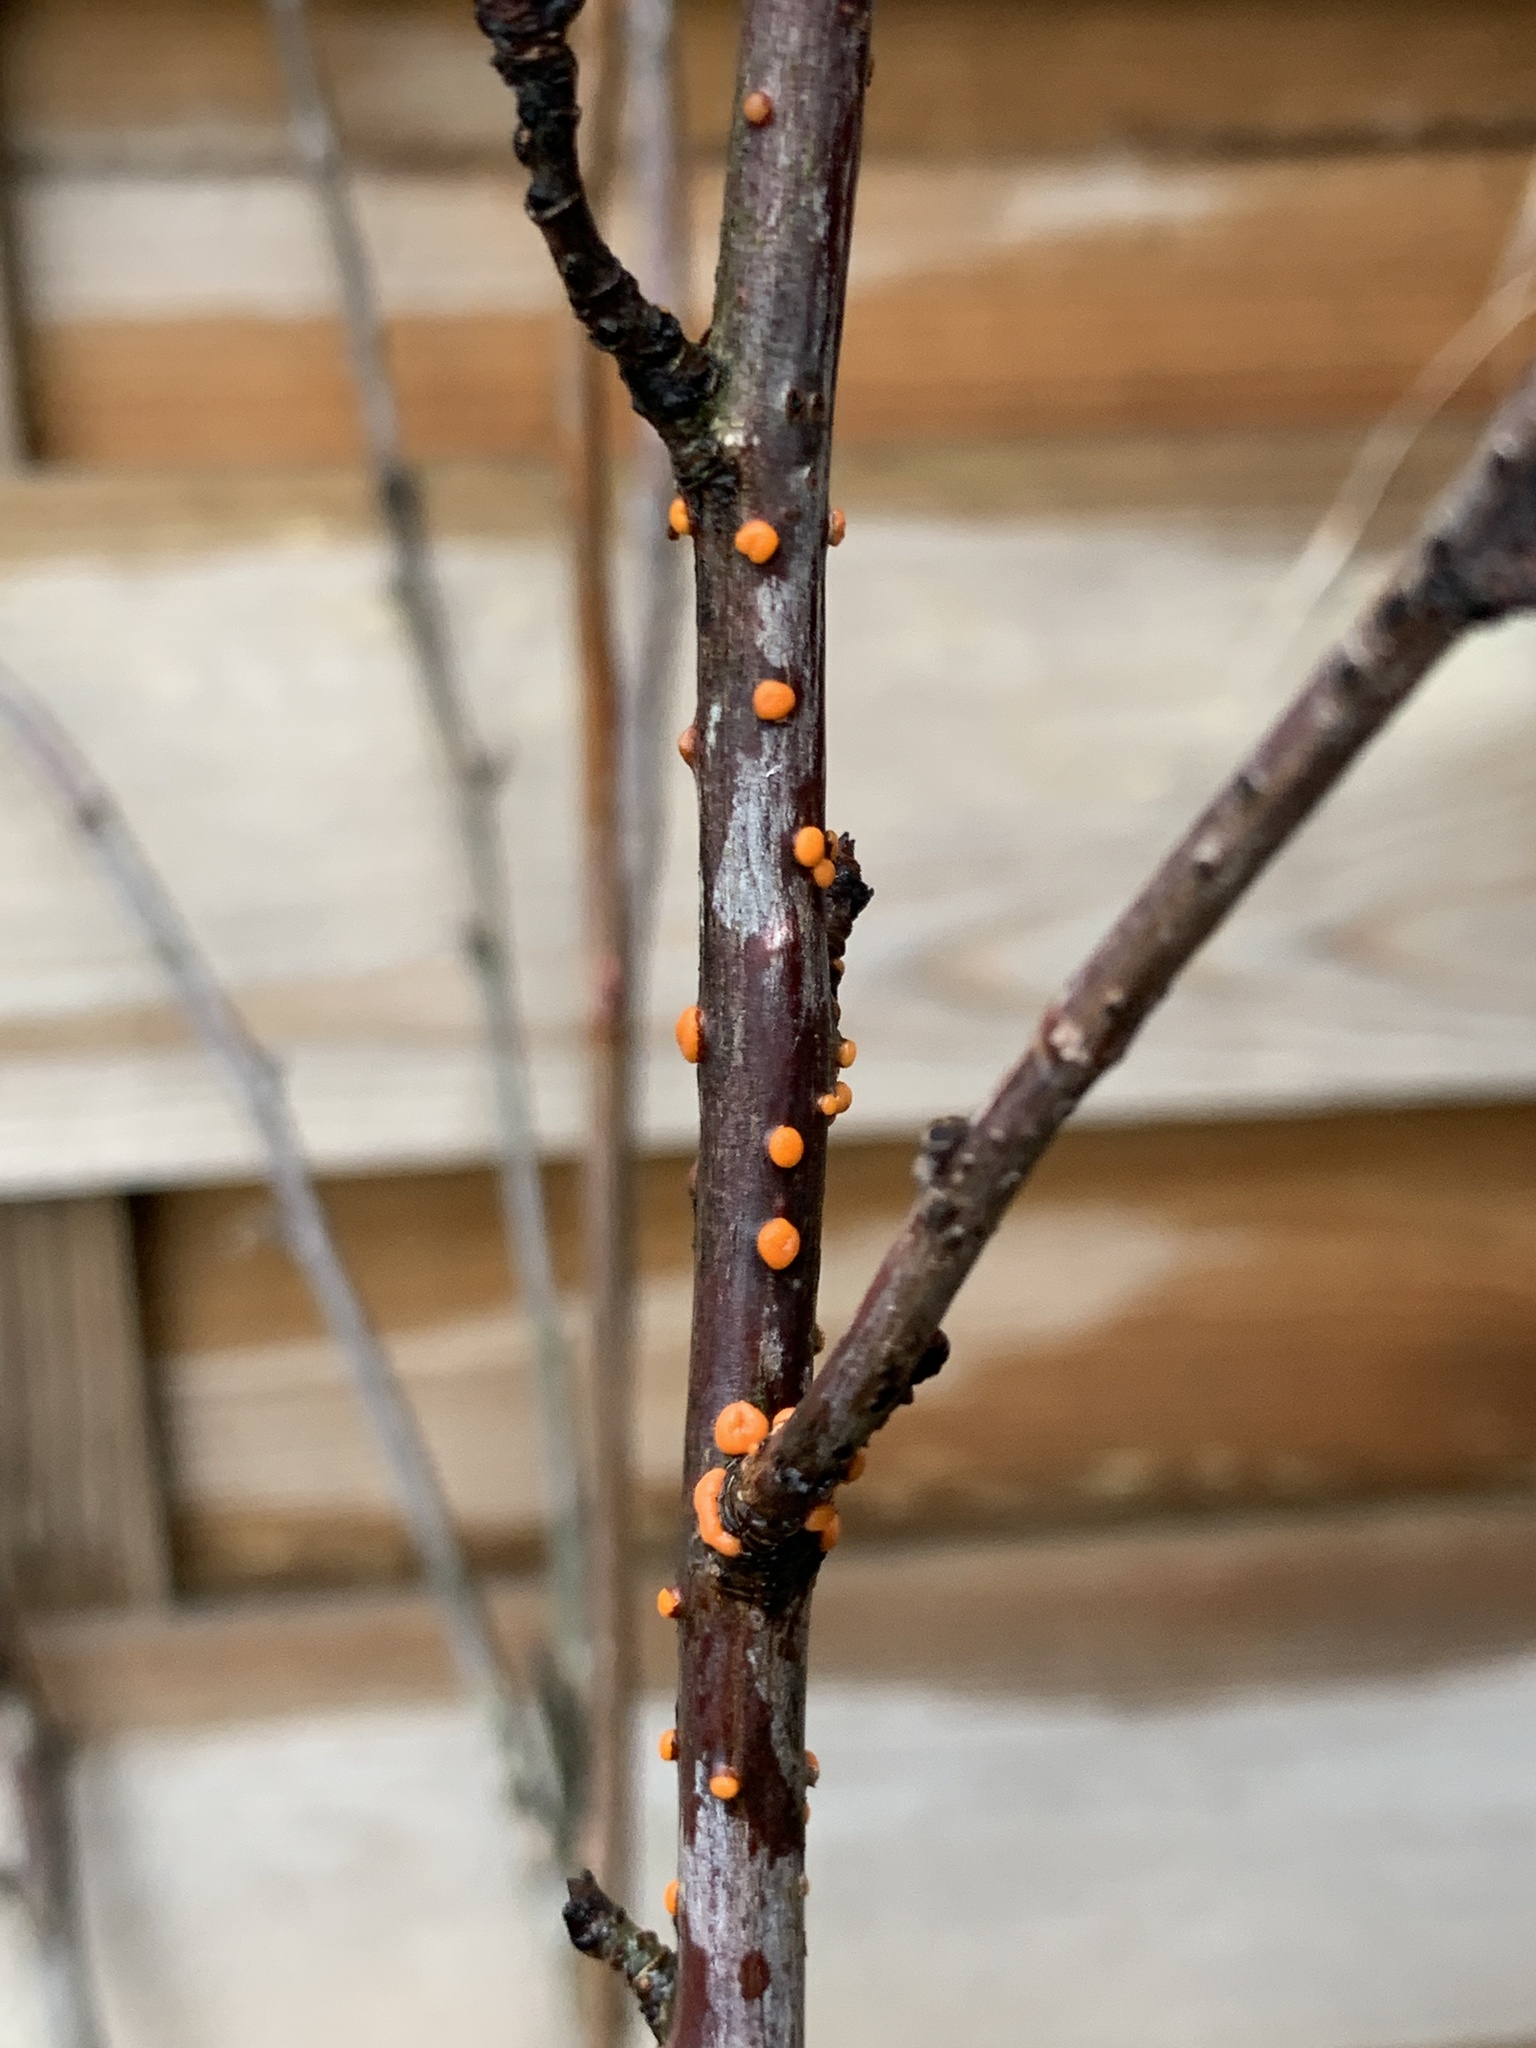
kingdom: Fungi
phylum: Ascomycota
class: Sordariomycetes
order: Hypocreales
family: Nectriaceae
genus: Nectria
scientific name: Nectria cinnabarina
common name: Coral spot
